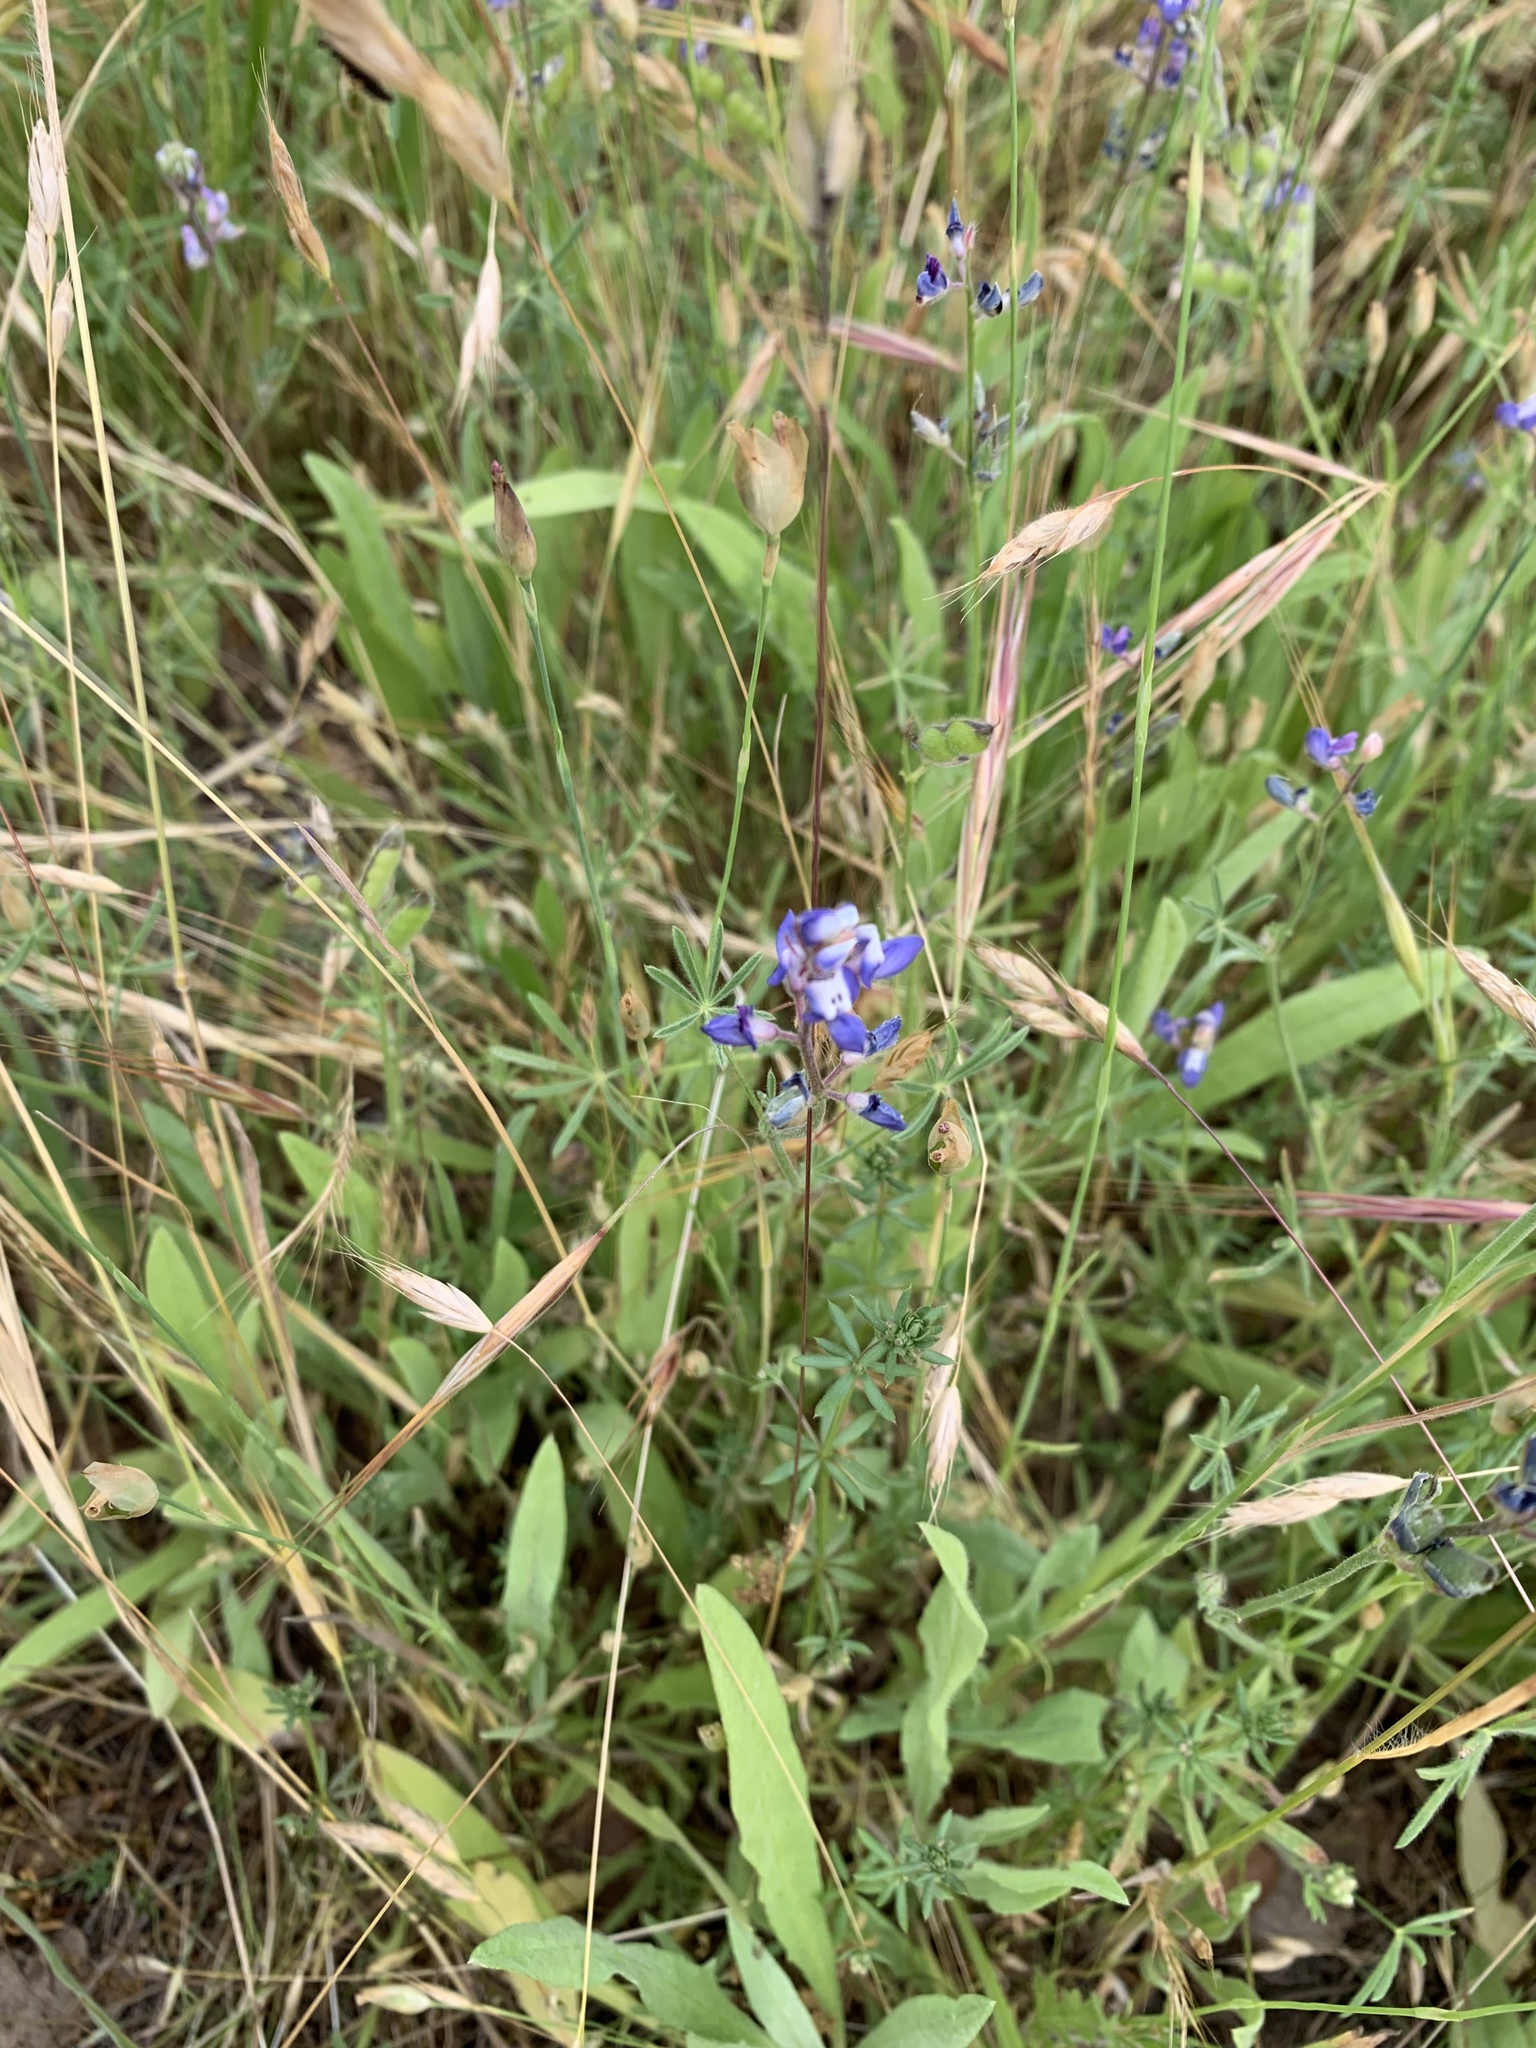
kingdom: Plantae
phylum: Tracheophyta
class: Magnoliopsida
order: Fabales
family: Fabaceae
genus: Lupinus
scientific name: Lupinus bicolor
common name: Miniature lupine
